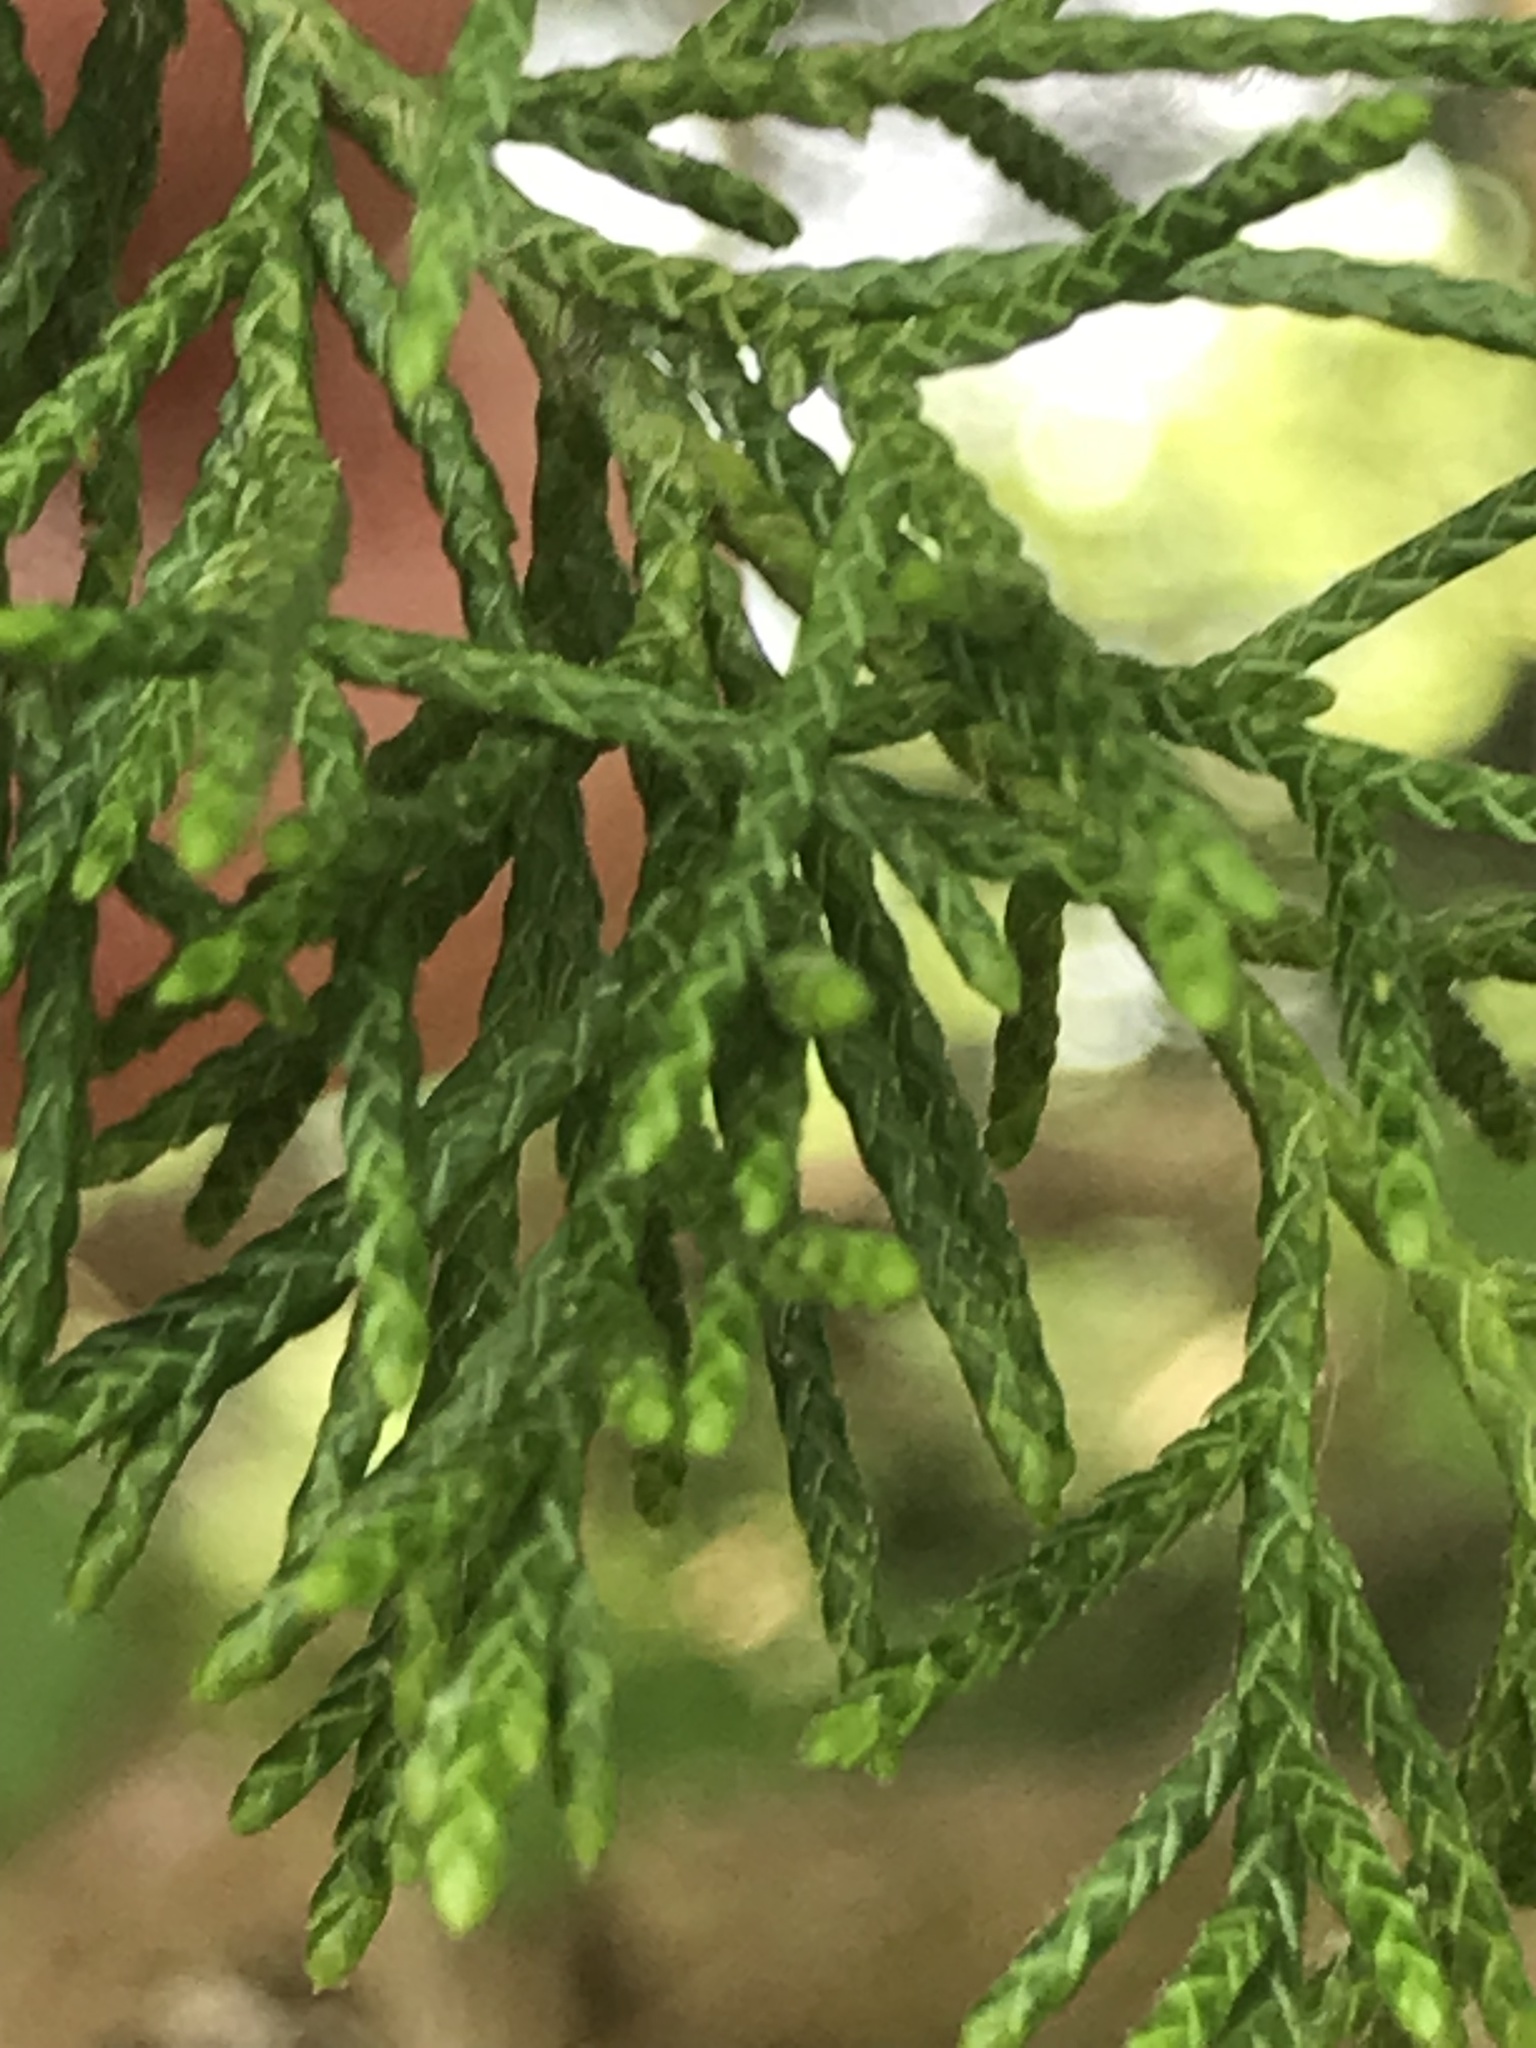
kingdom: Plantae
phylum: Tracheophyta
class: Pinopsida
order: Pinales
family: Cupressaceae
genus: Juniperus
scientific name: Juniperus virginiana
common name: Red juniper
